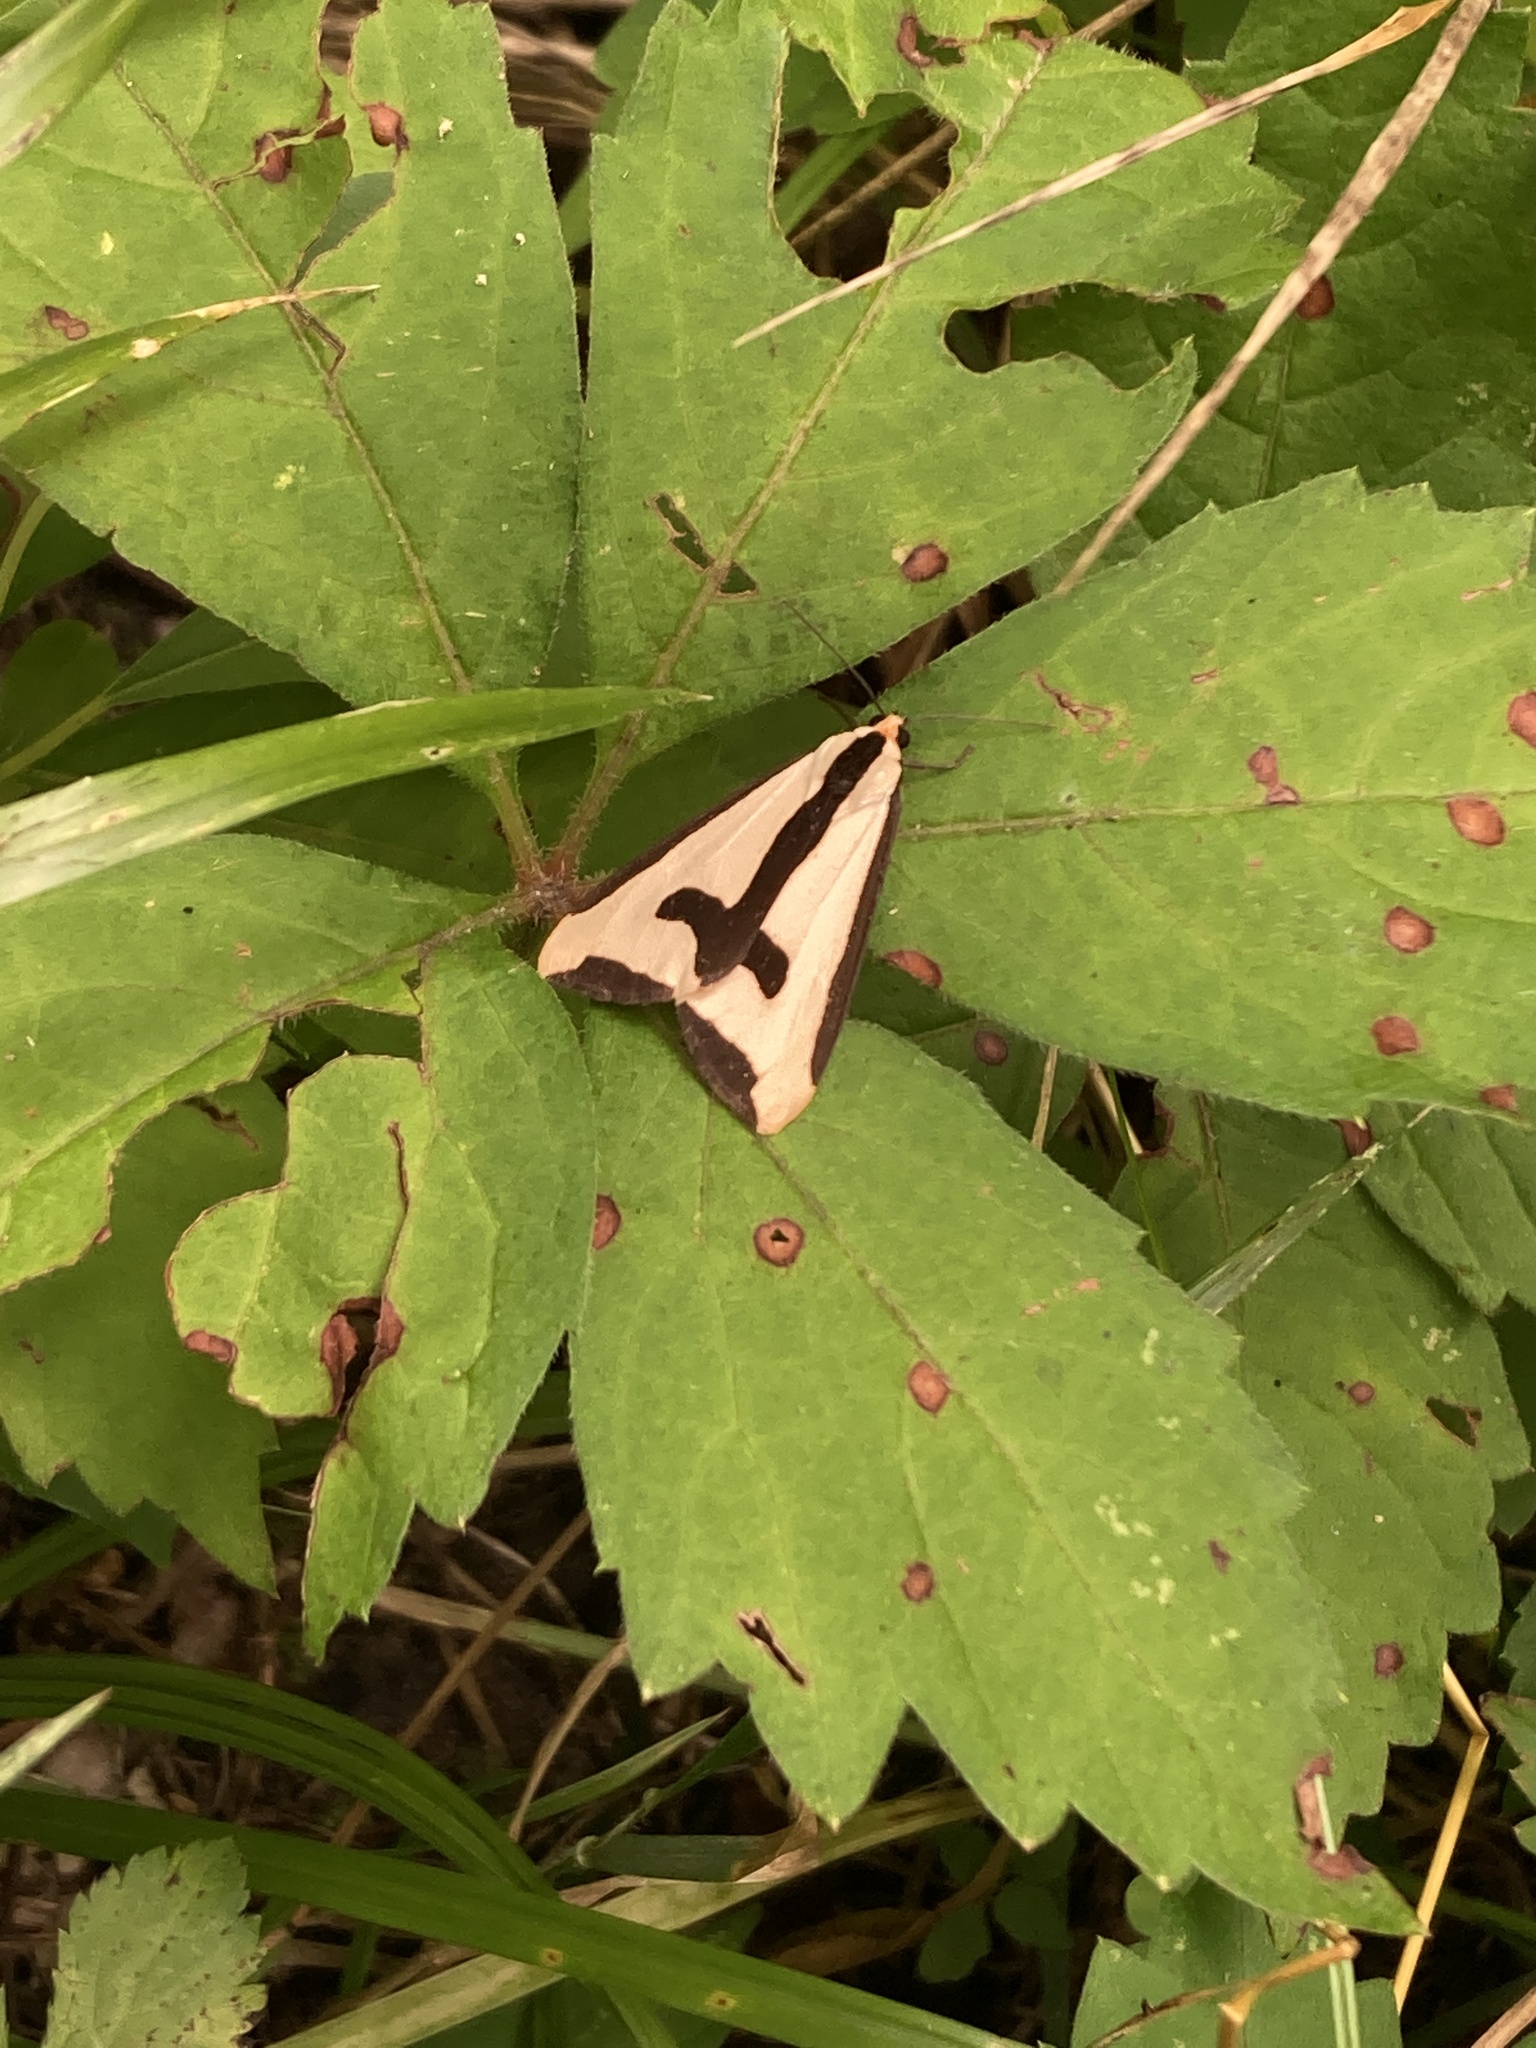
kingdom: Animalia
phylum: Arthropoda
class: Insecta
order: Lepidoptera
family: Erebidae
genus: Haploa
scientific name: Haploa clymene
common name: Clymene moth
